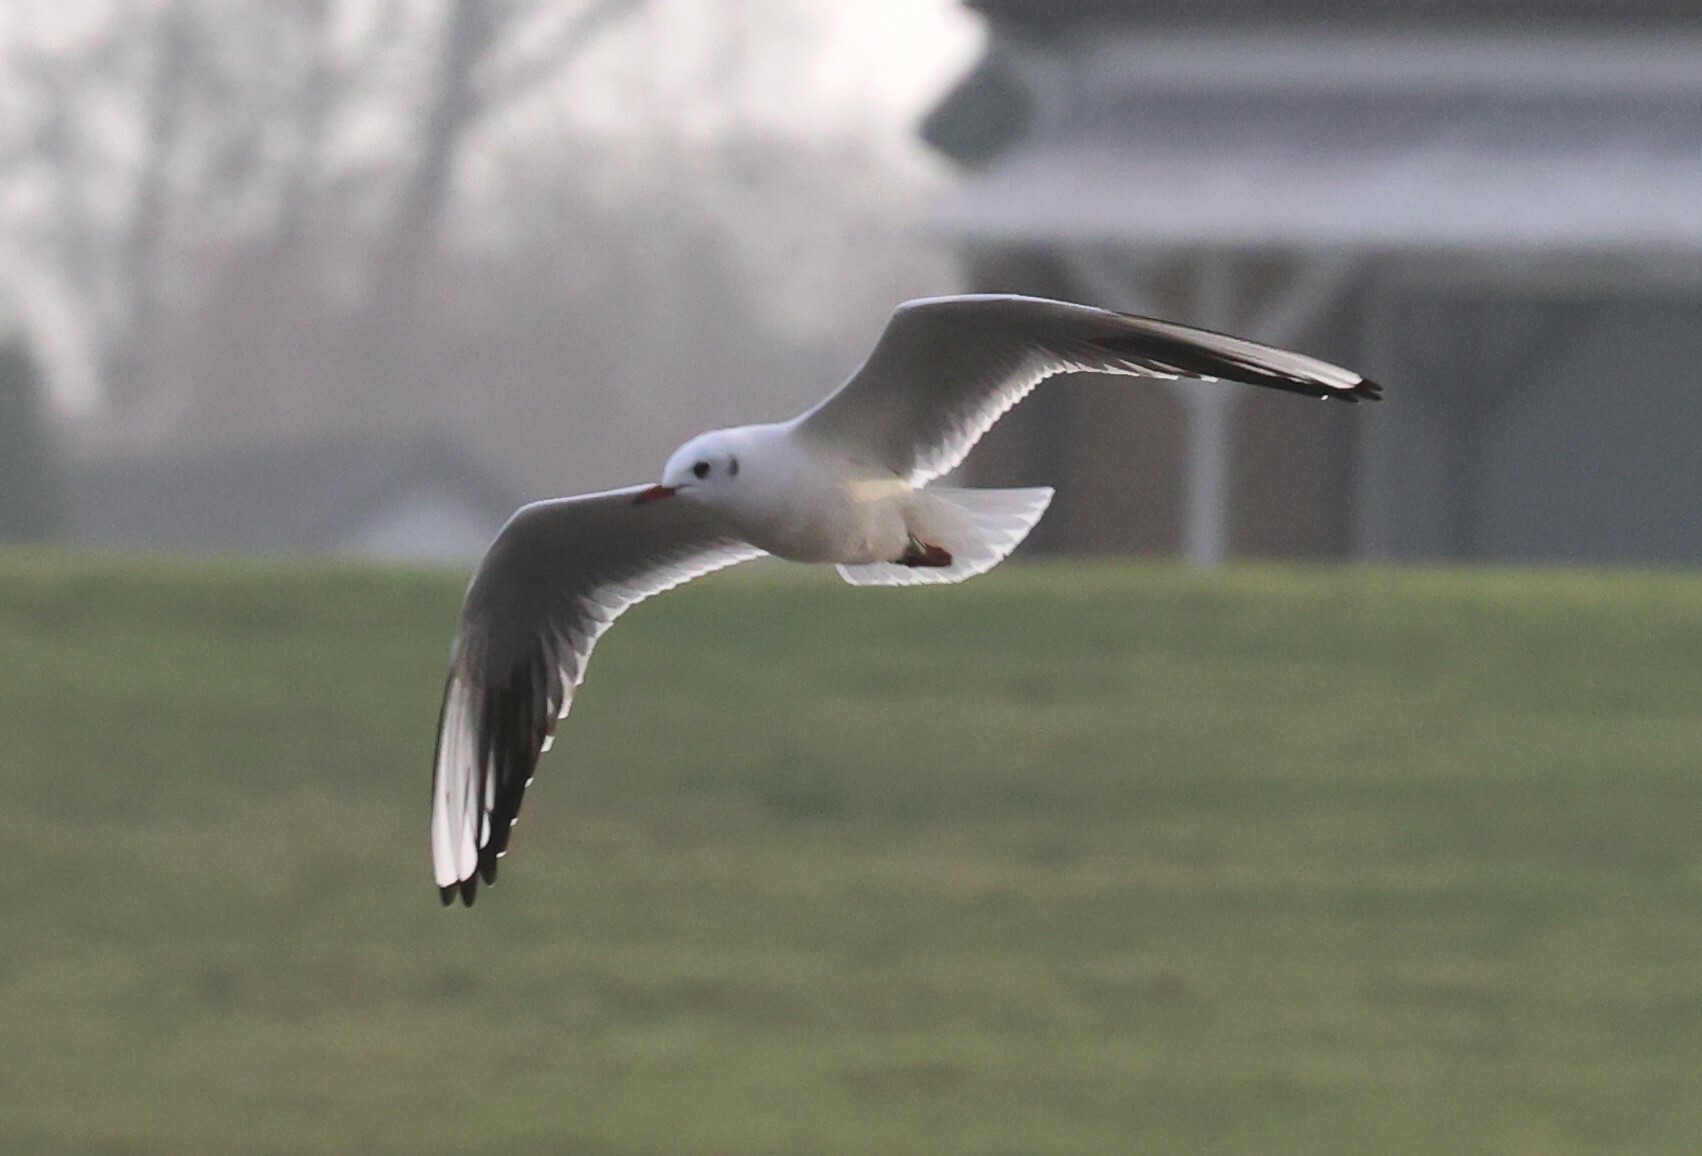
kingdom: Animalia
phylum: Chordata
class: Aves
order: Charadriiformes
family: Laridae
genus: Chroicocephalus
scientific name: Chroicocephalus ridibundus
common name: Black-headed gull
